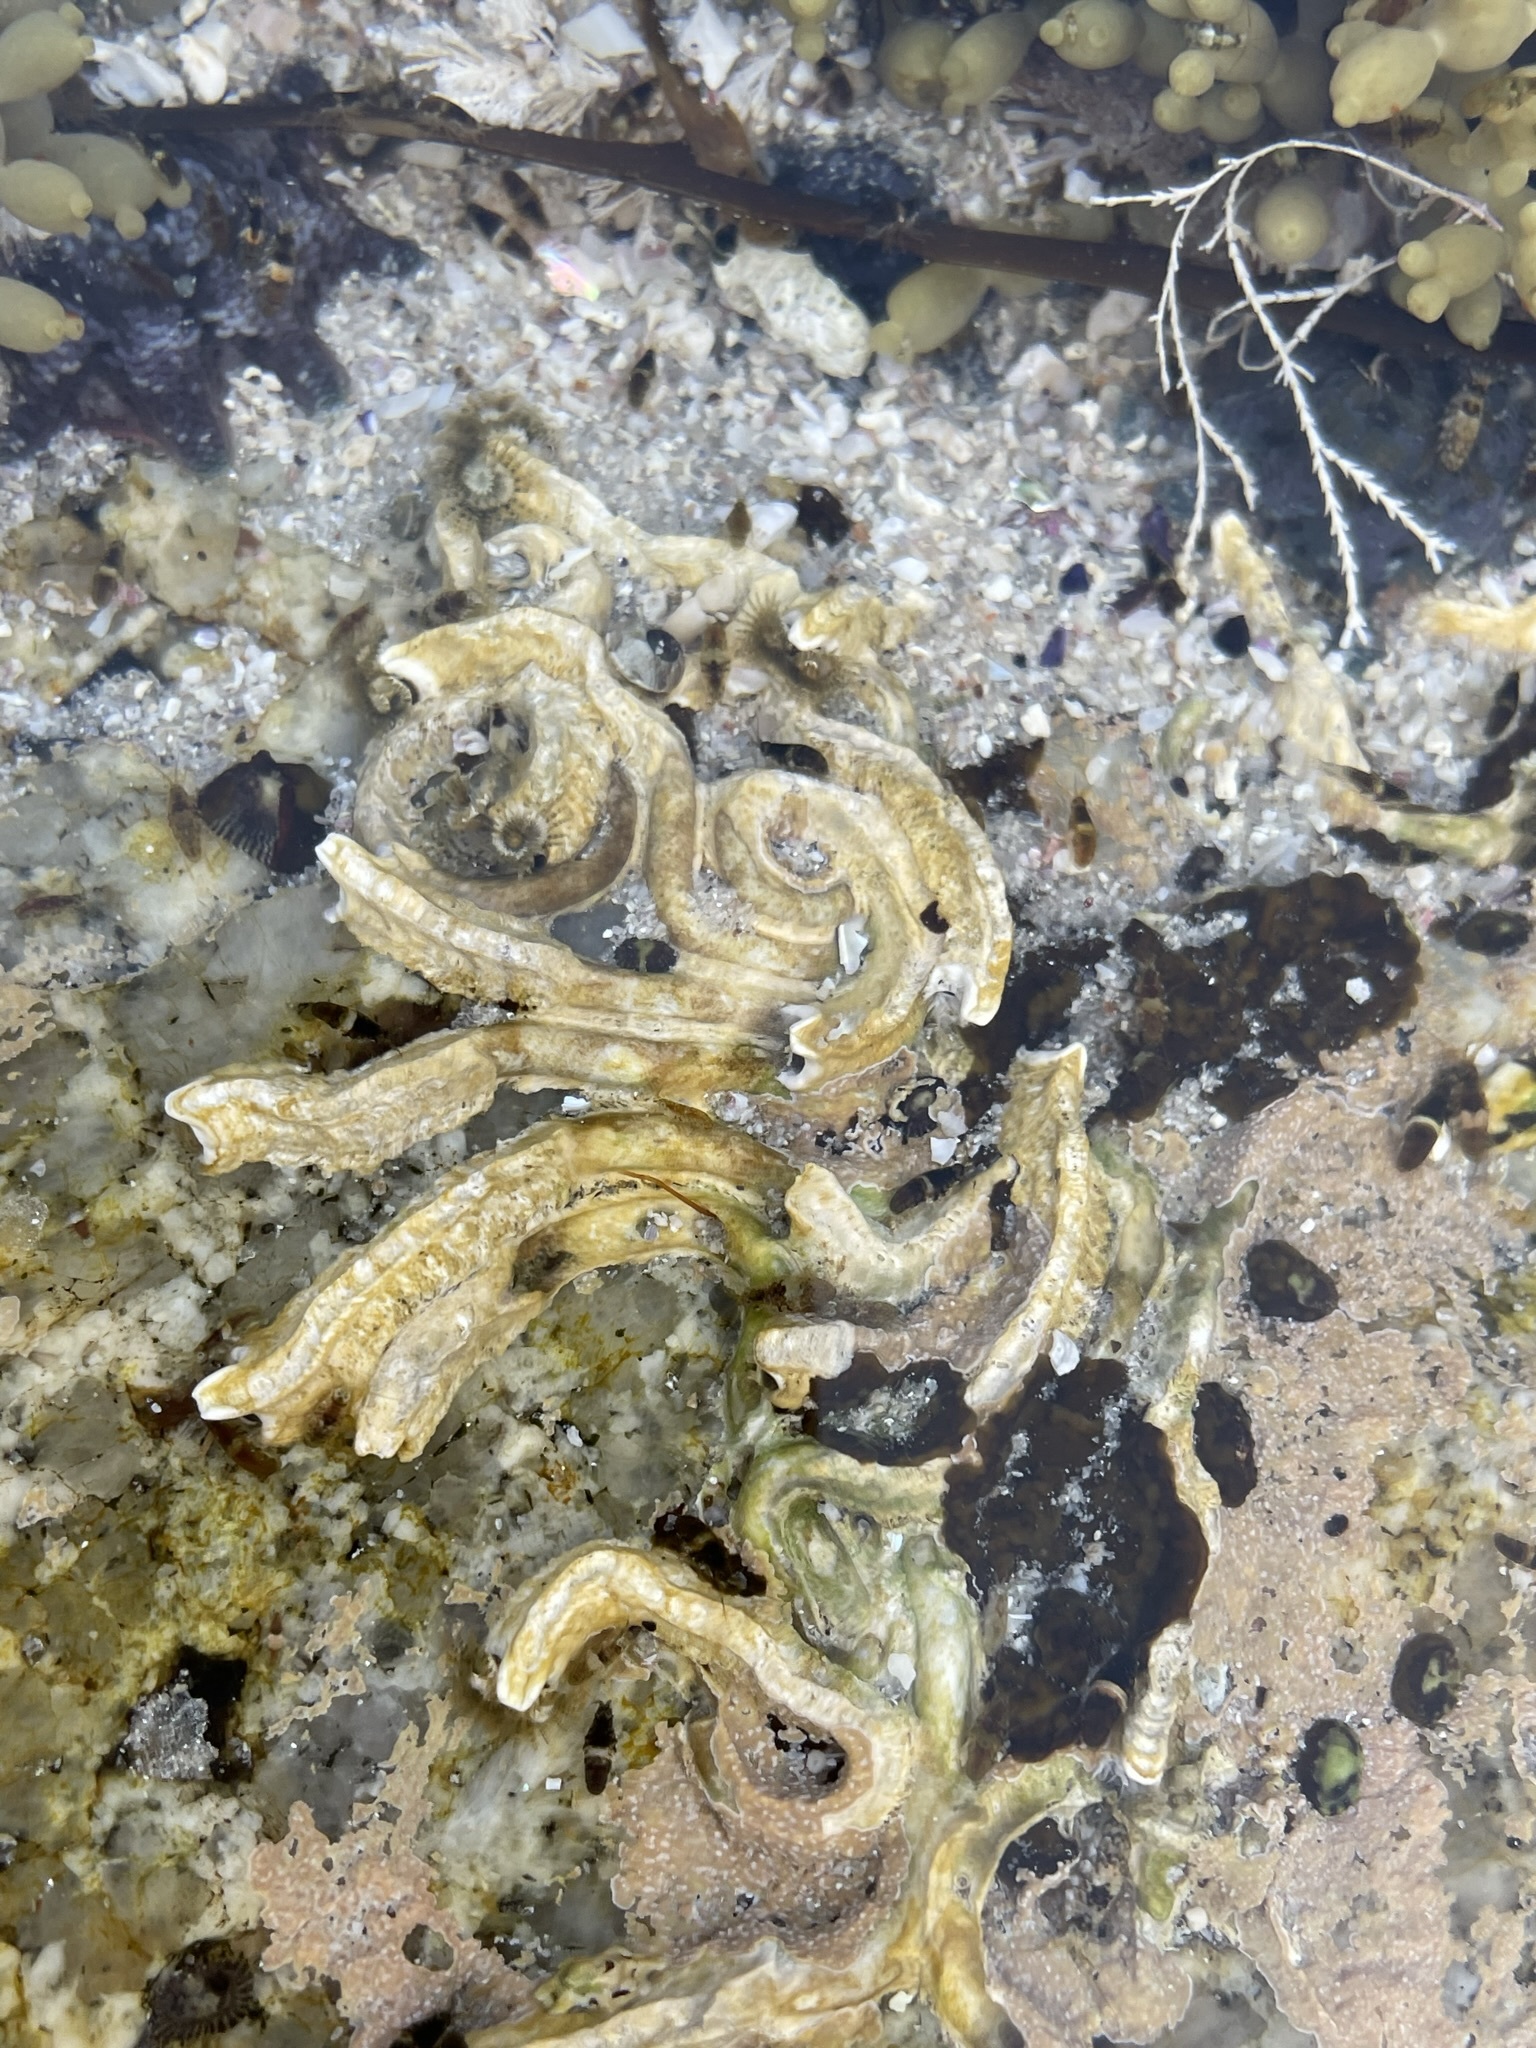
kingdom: Animalia
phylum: Annelida
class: Polychaeta
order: Sabellida
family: Serpulidae
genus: Galeolaria
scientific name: Galeolaria caespitosa
